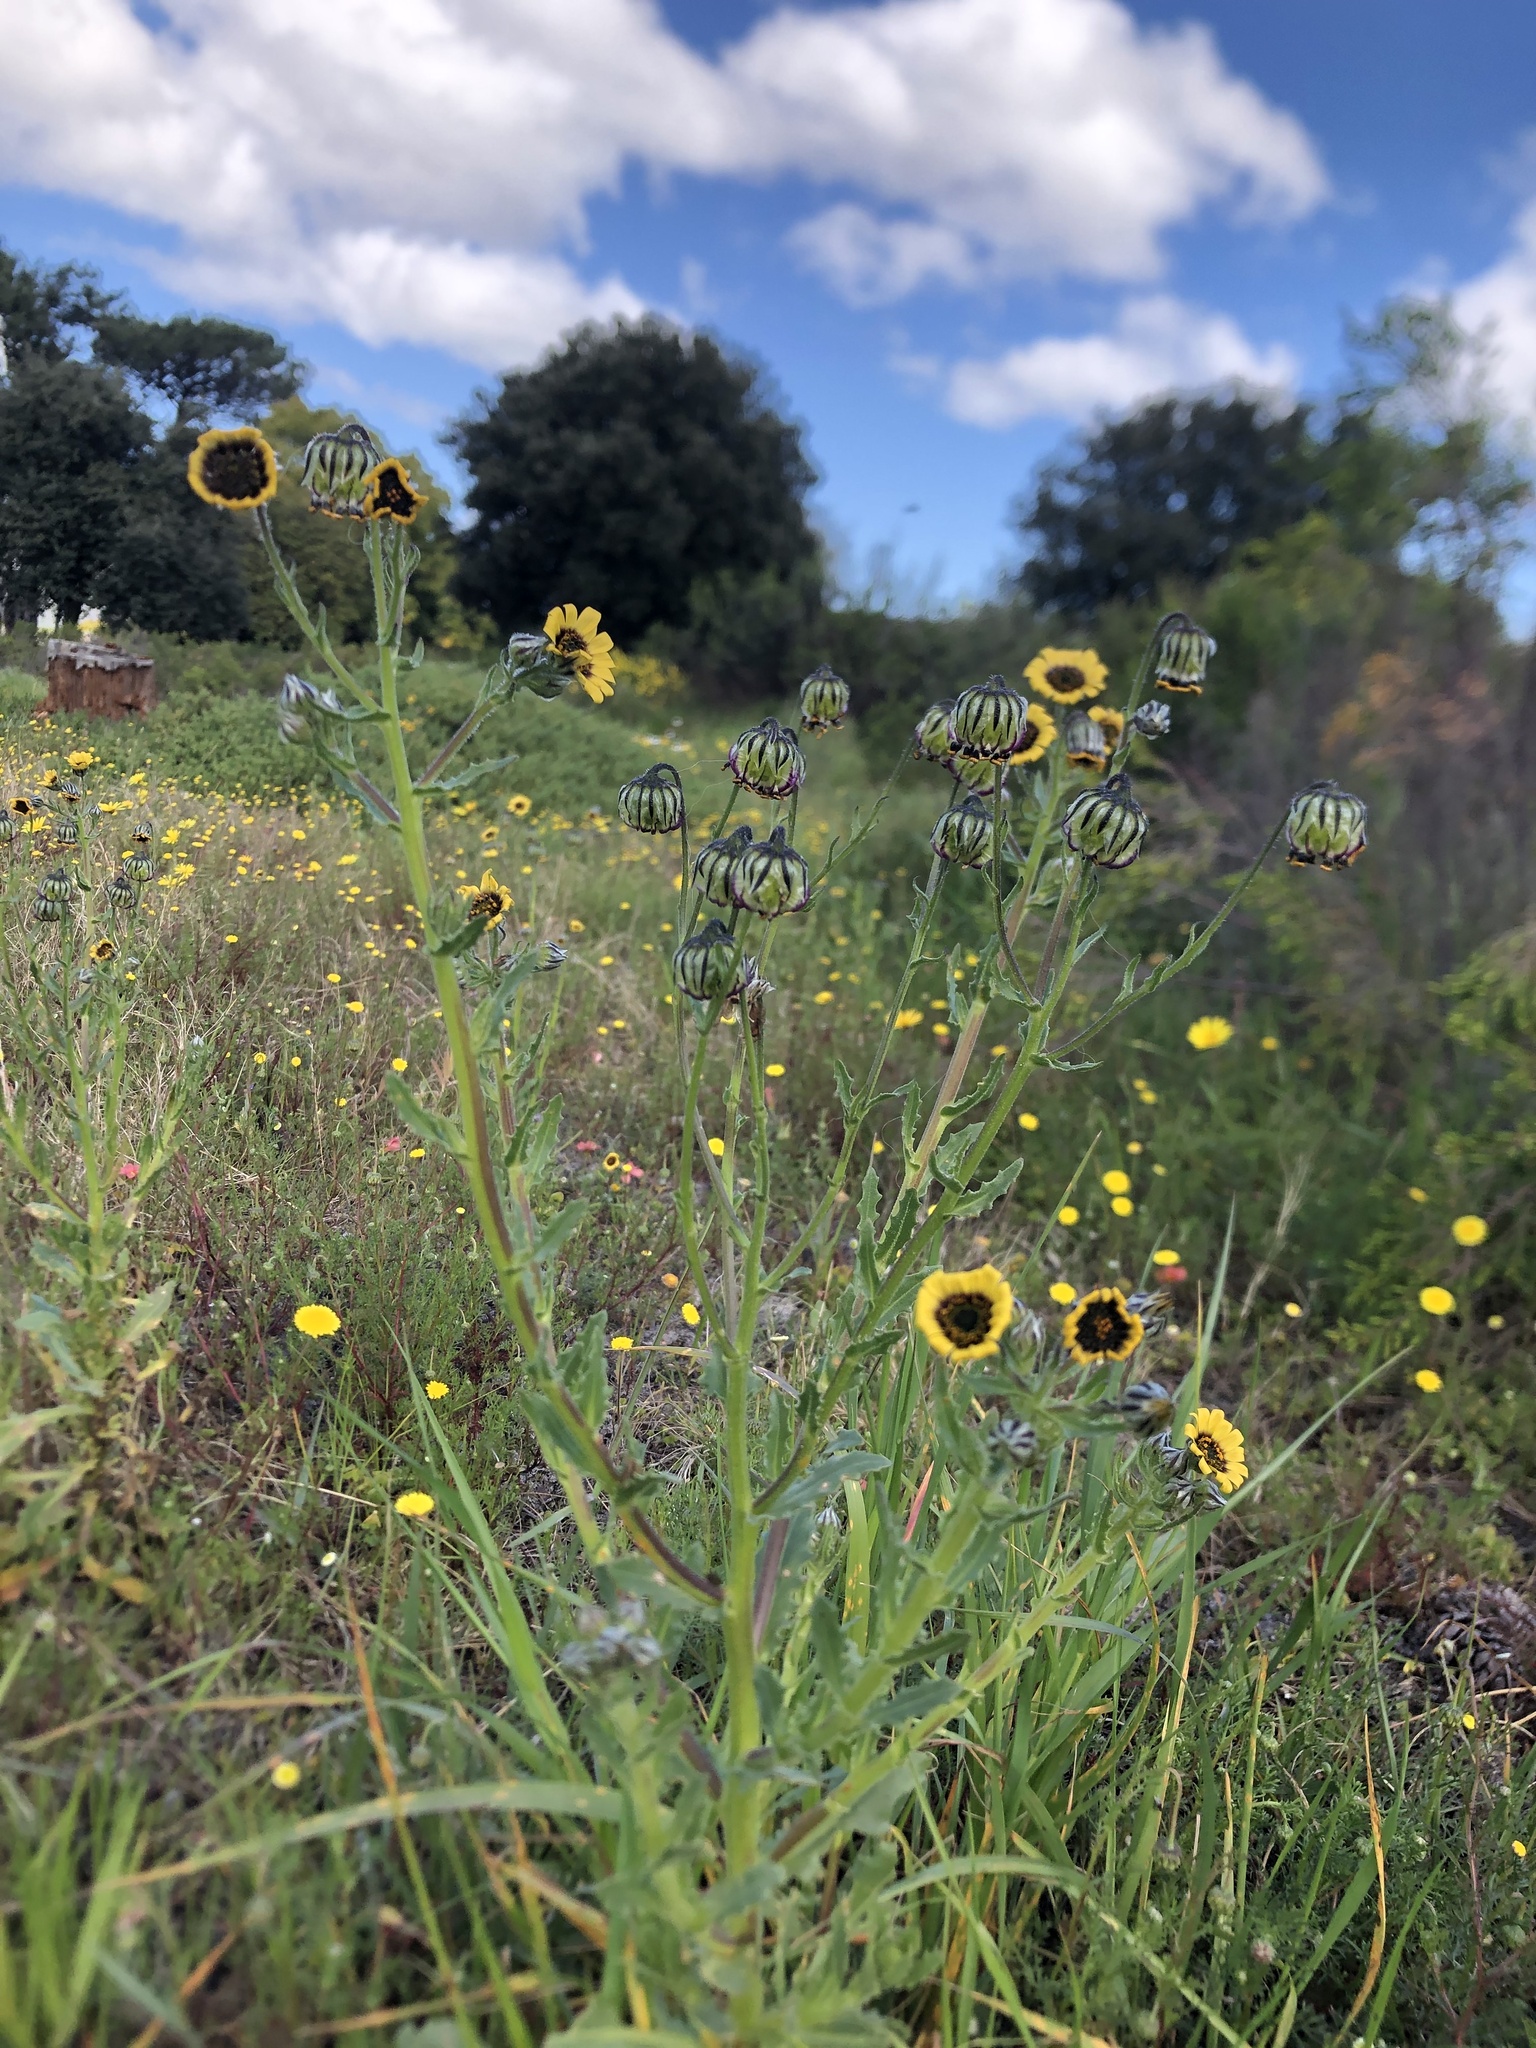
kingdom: Plantae
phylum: Tracheophyta
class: Magnoliopsida
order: Asterales
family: Asteraceae
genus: Osteospermum
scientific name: Osteospermum monstrosum
